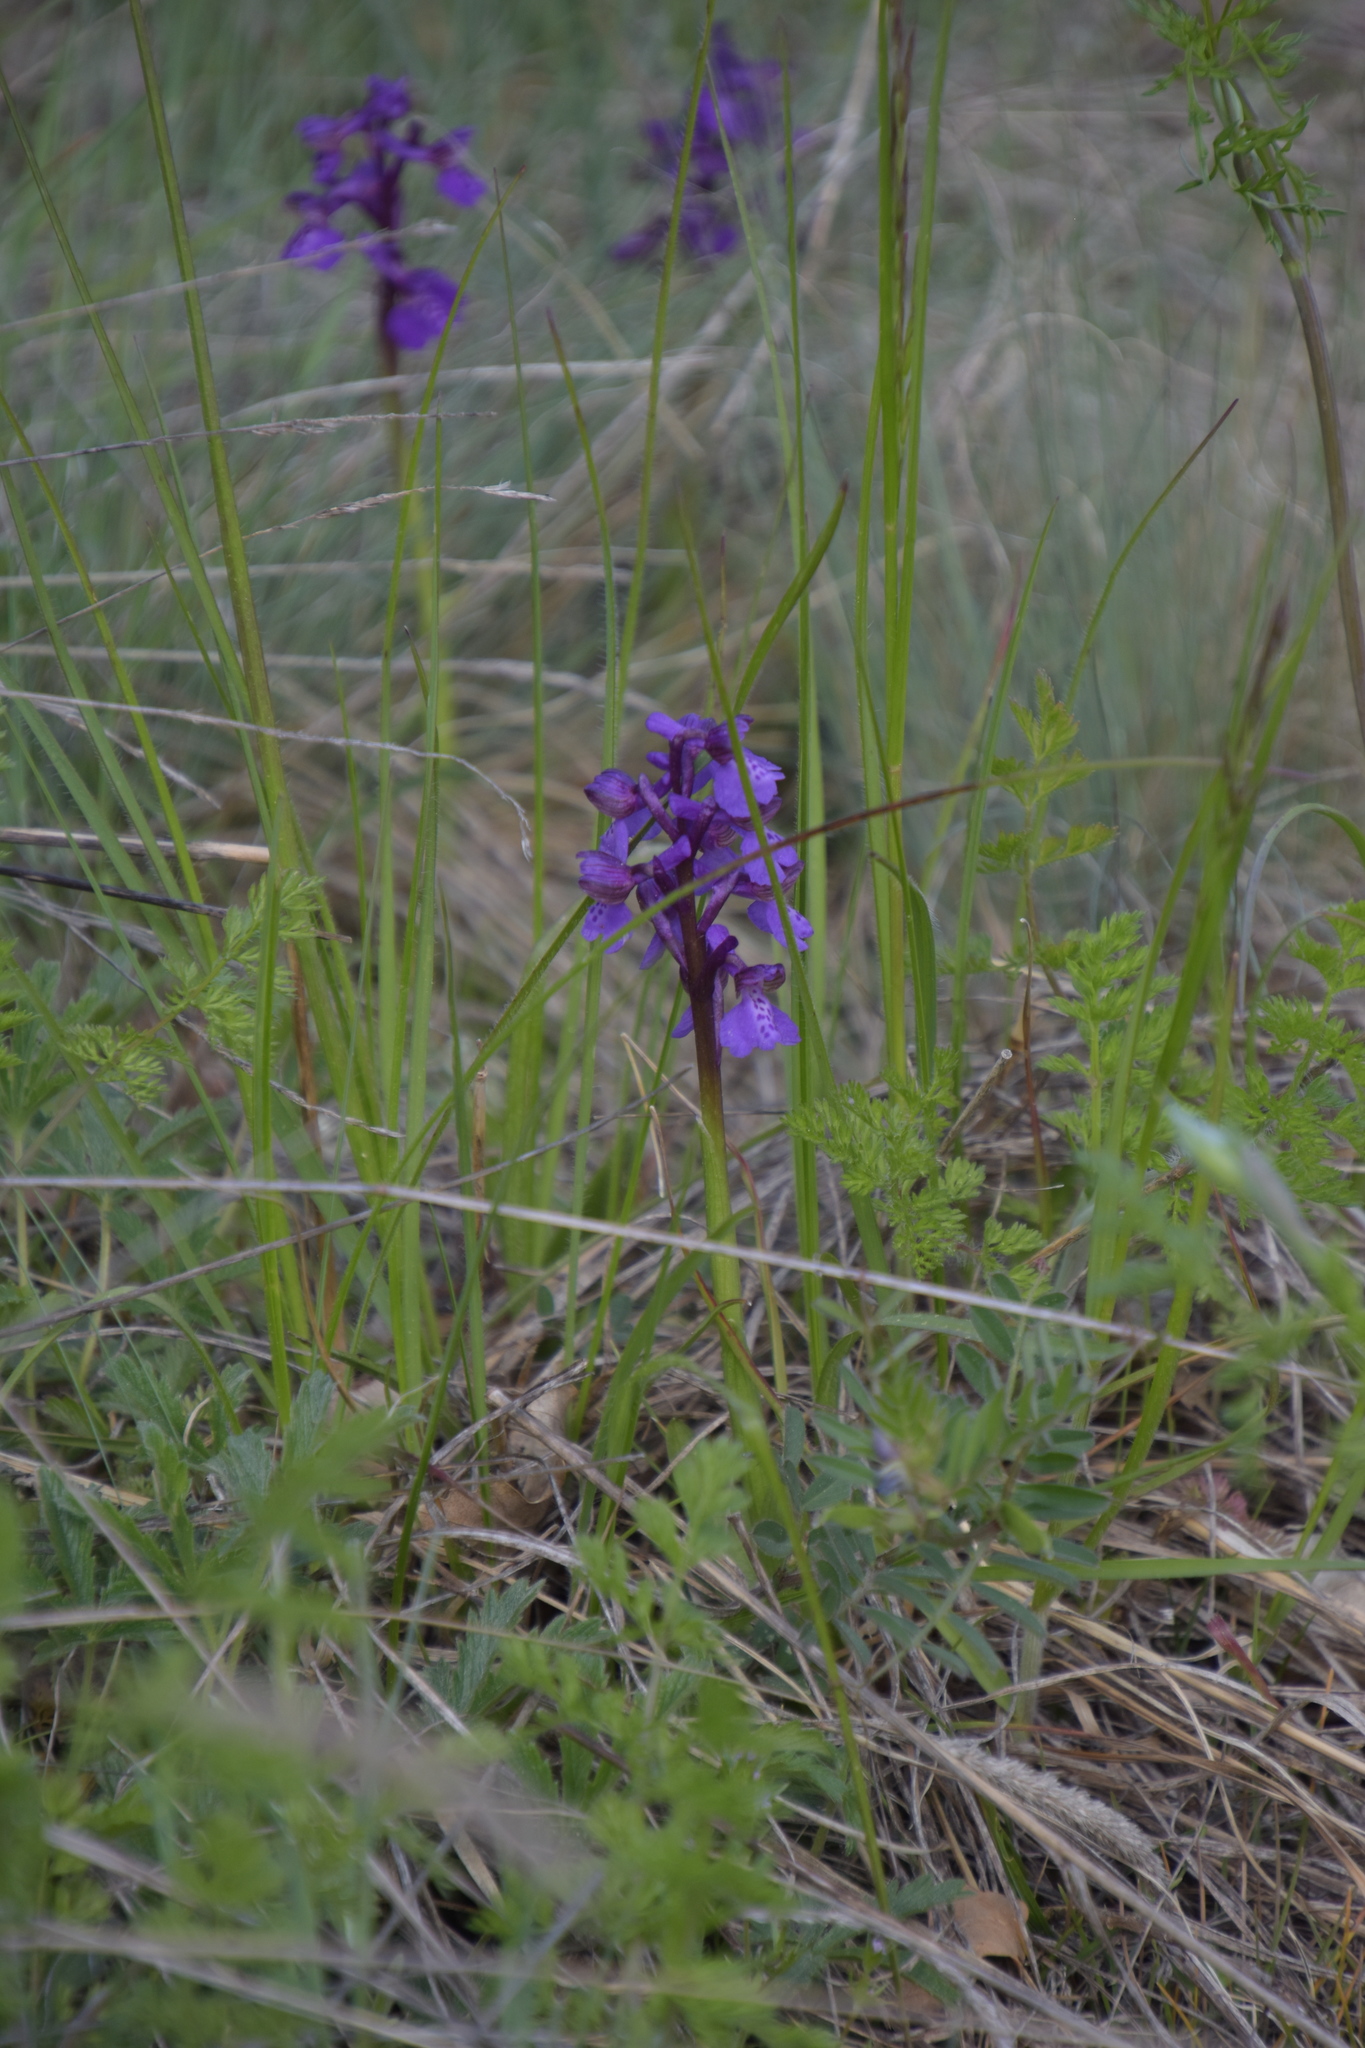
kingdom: Plantae
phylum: Tracheophyta
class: Liliopsida
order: Asparagales
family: Orchidaceae
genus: Anacamptis
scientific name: Anacamptis morio
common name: Green-winged orchid
